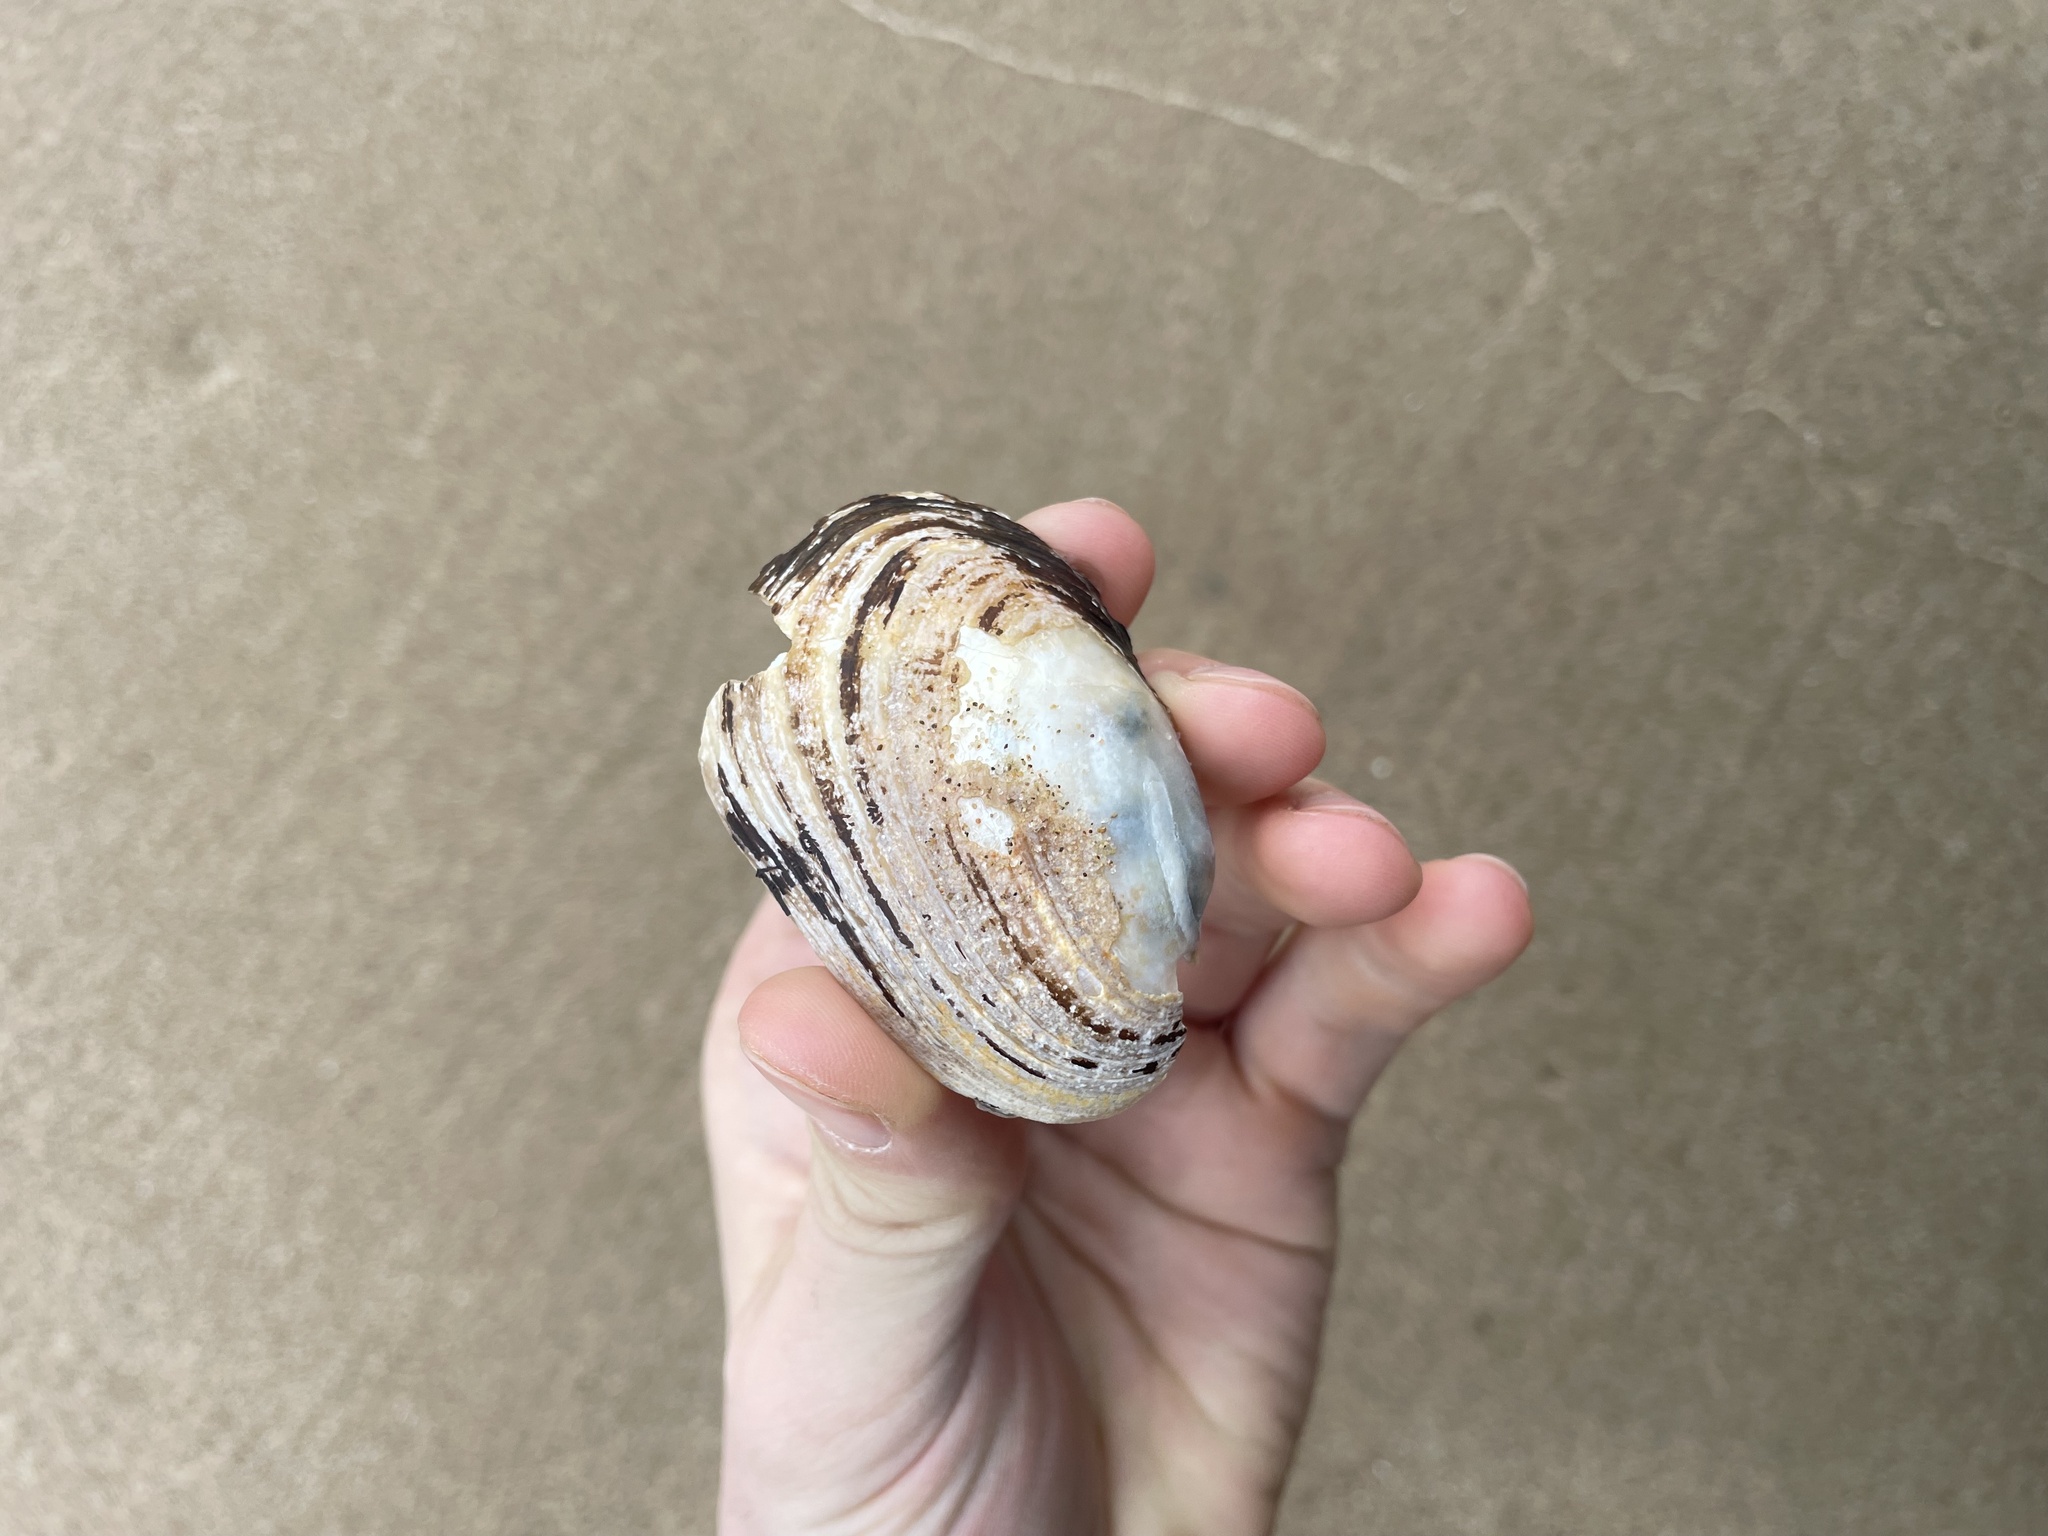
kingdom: Animalia
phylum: Mollusca
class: Bivalvia
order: Unionida
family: Unionidae
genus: Lampsilis
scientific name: Lampsilis siliquoidea
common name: Fatmucket
